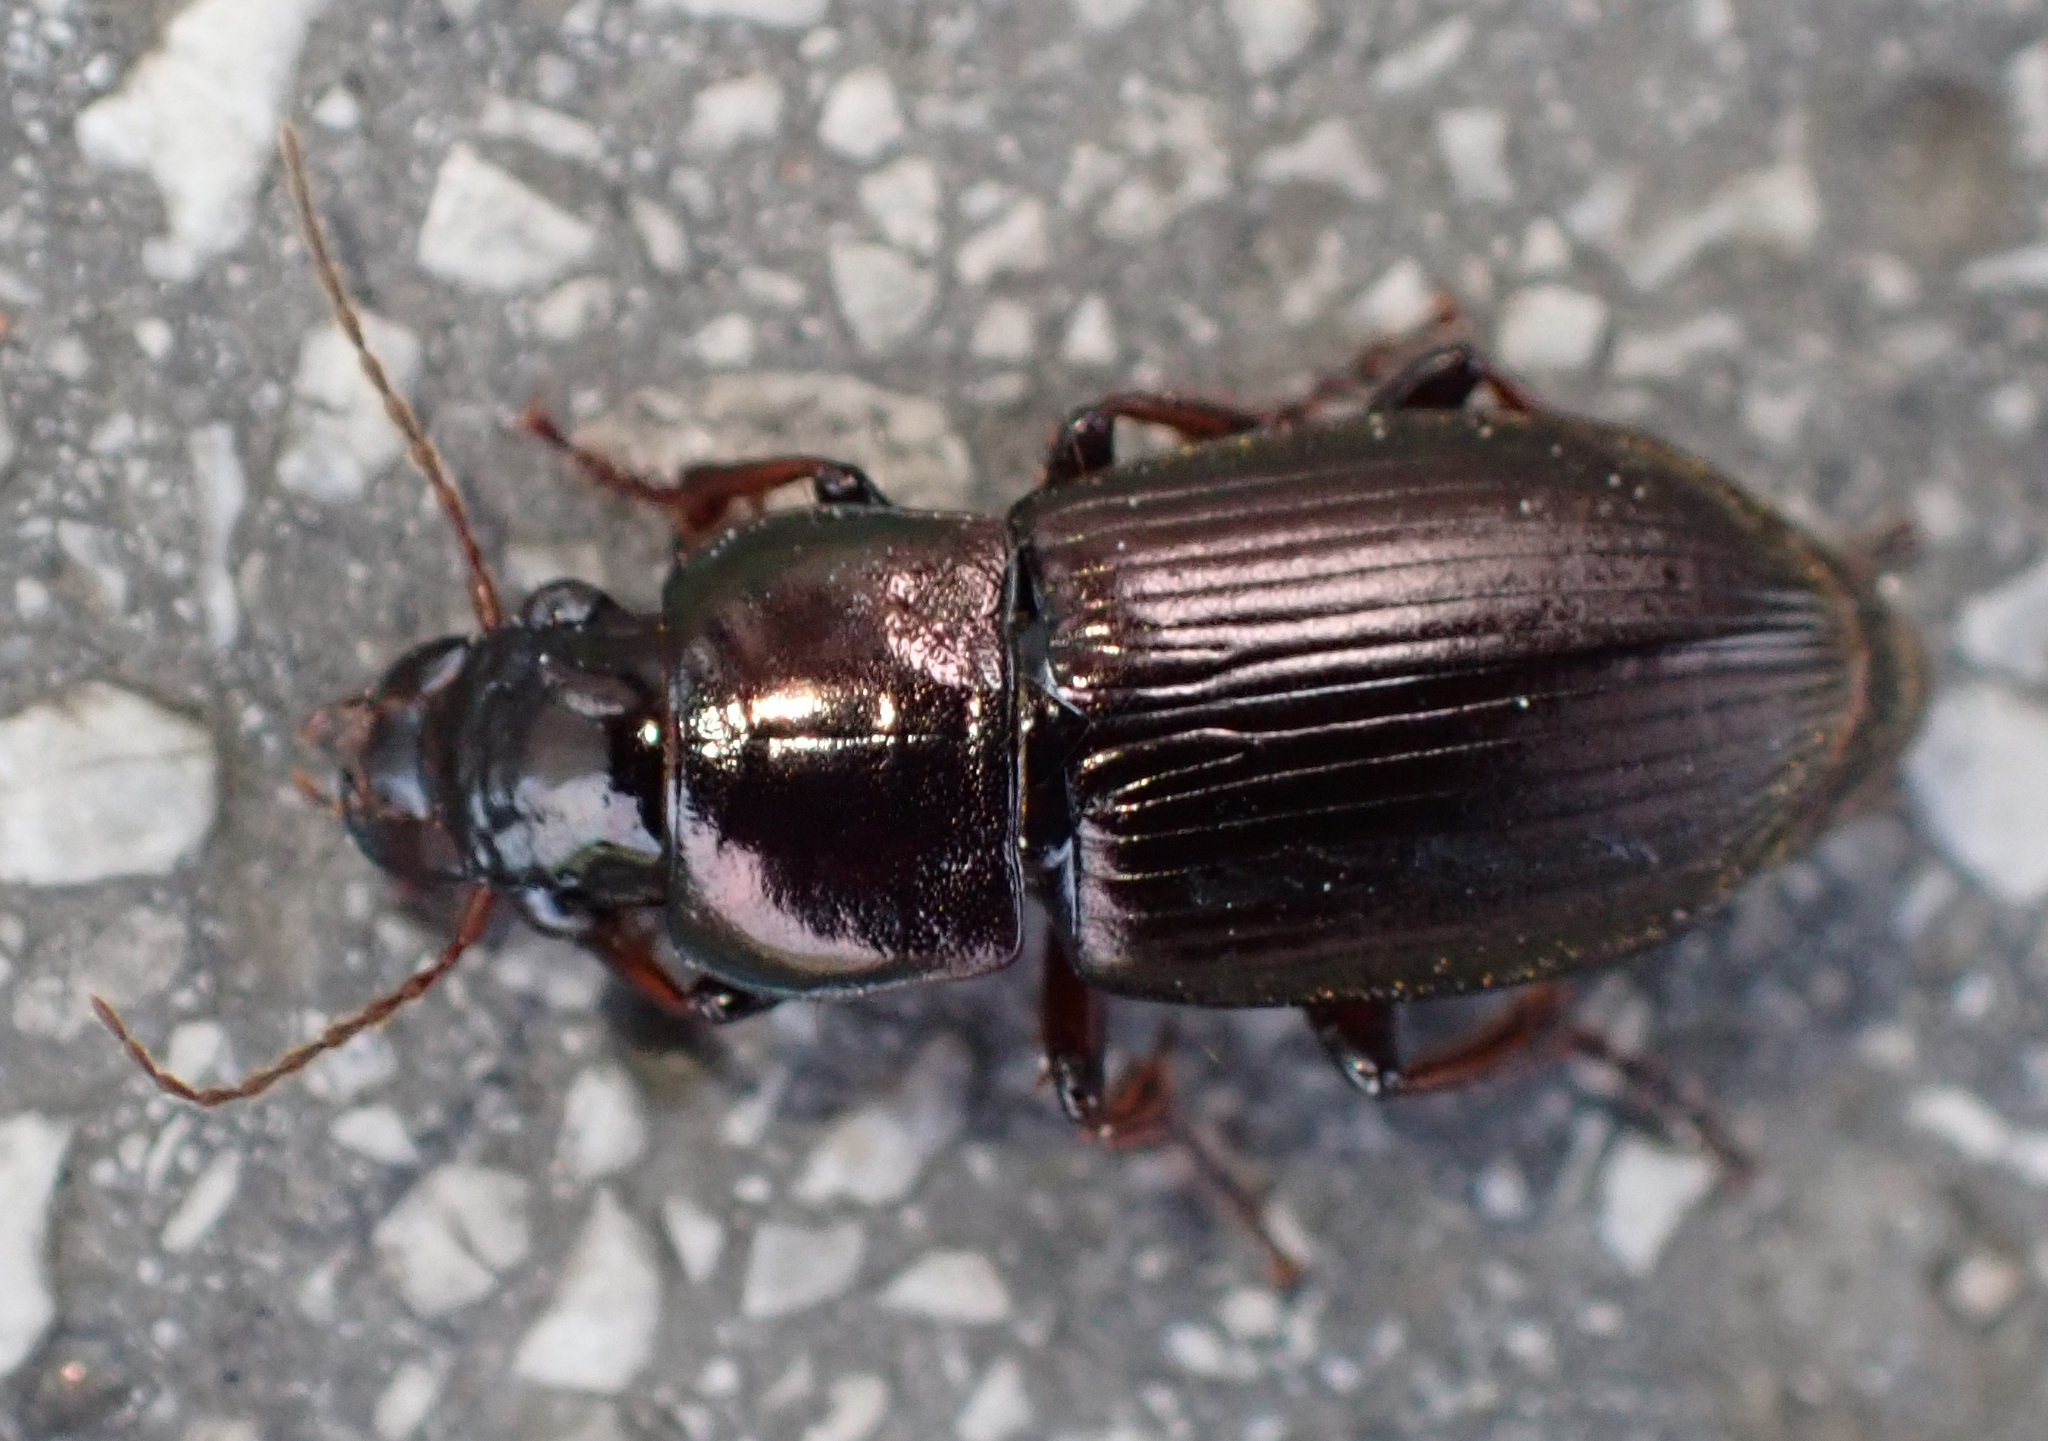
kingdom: Animalia
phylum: Arthropoda
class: Insecta
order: Coleoptera
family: Carabidae
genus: Harpalus
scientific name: Harpalus affinis
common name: Polychrome harp ground beetle
